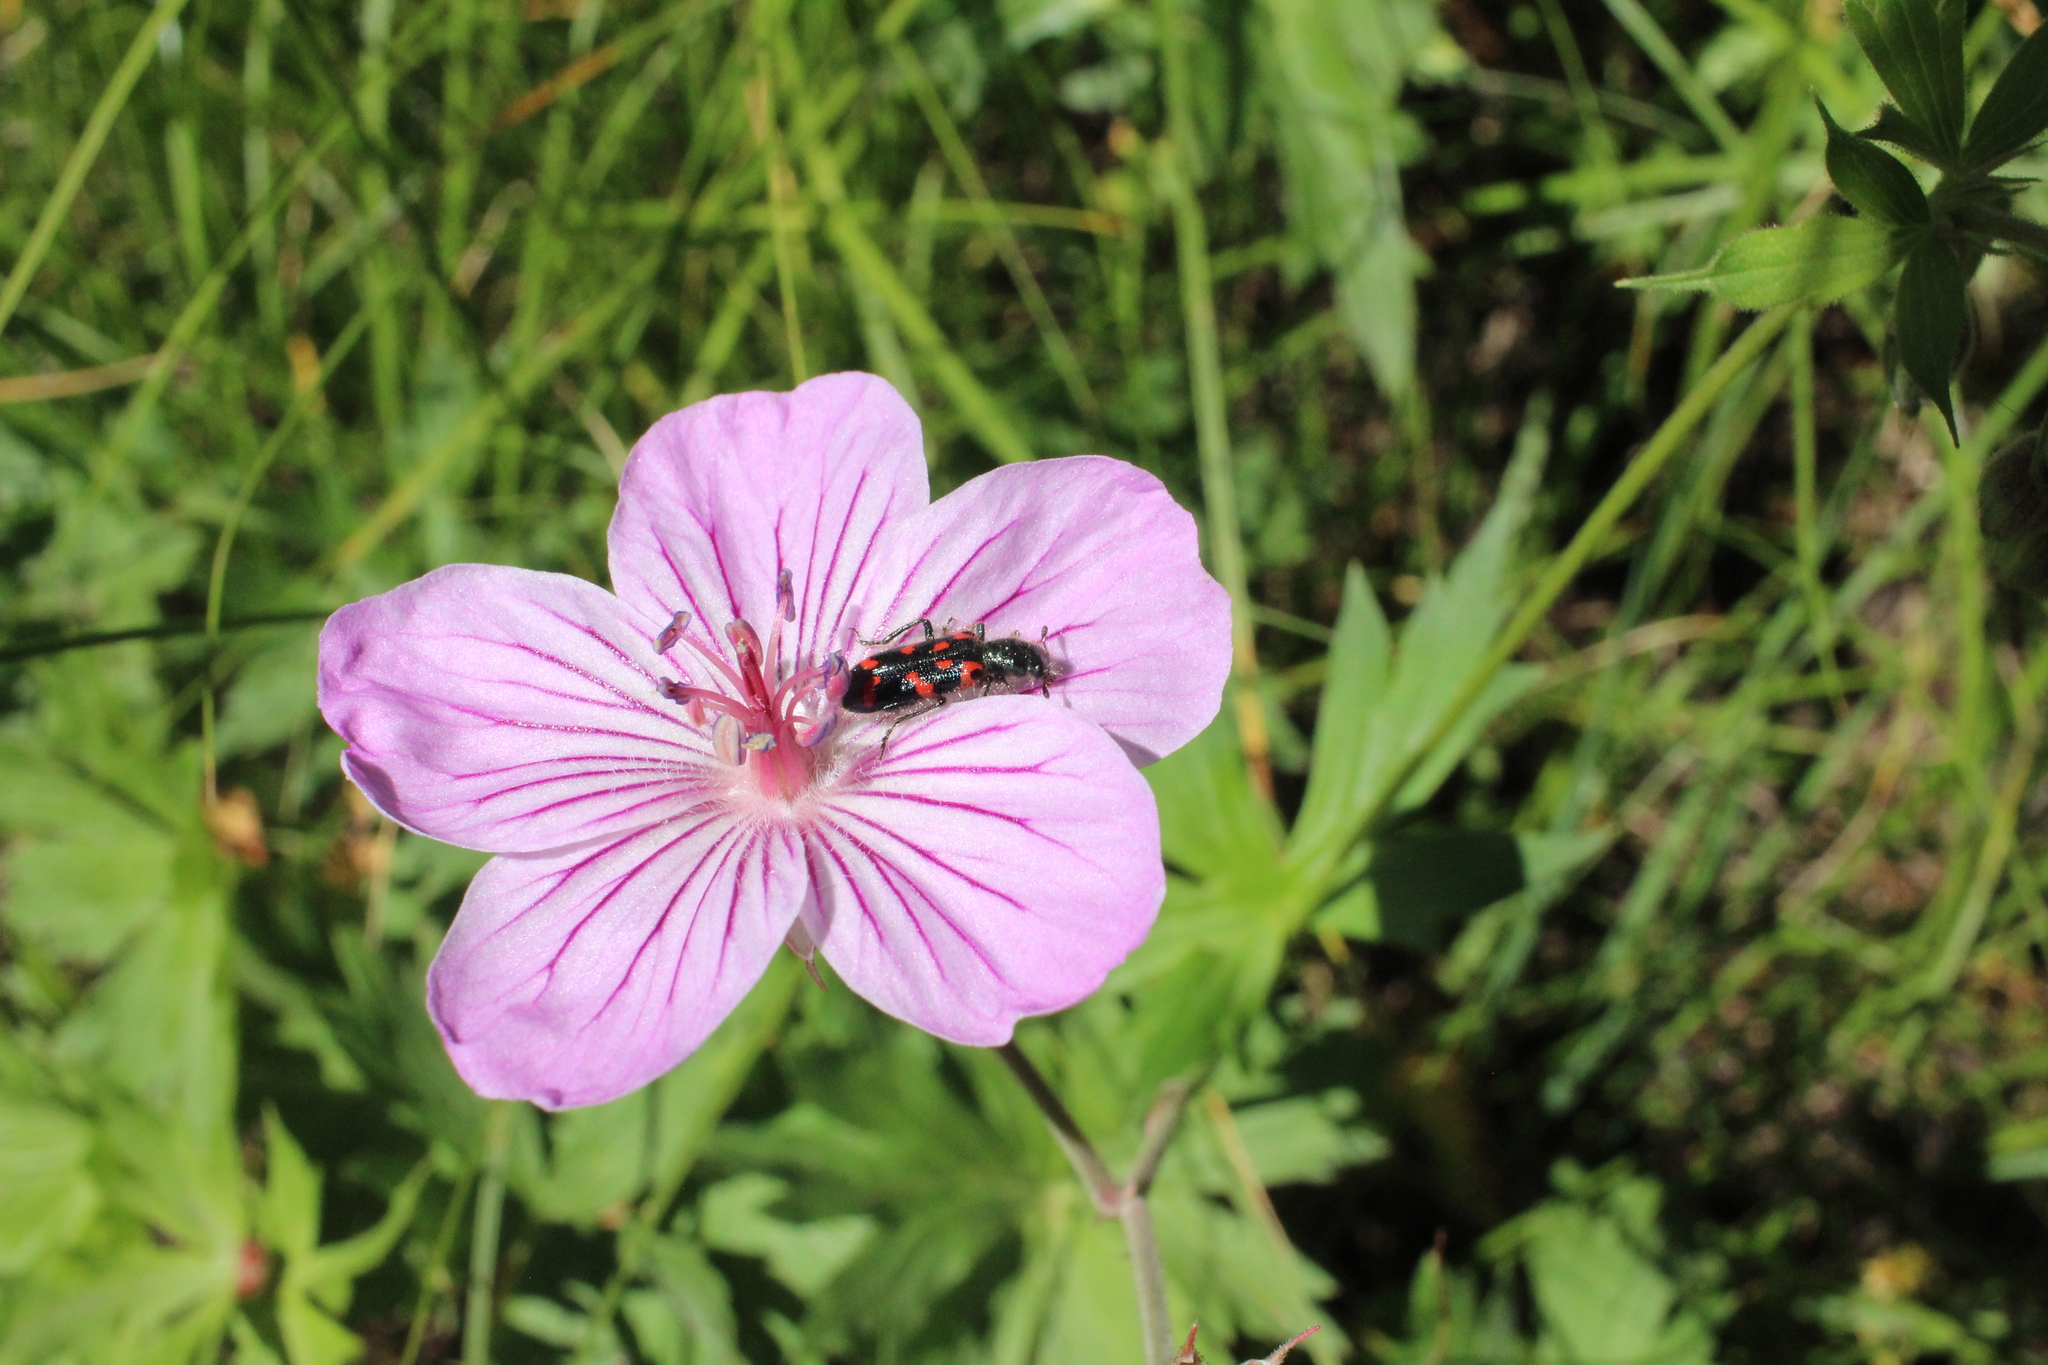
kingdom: Animalia
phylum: Arthropoda
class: Insecta
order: Coleoptera
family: Cleridae
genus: Trichodes
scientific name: Trichodes ornatus
